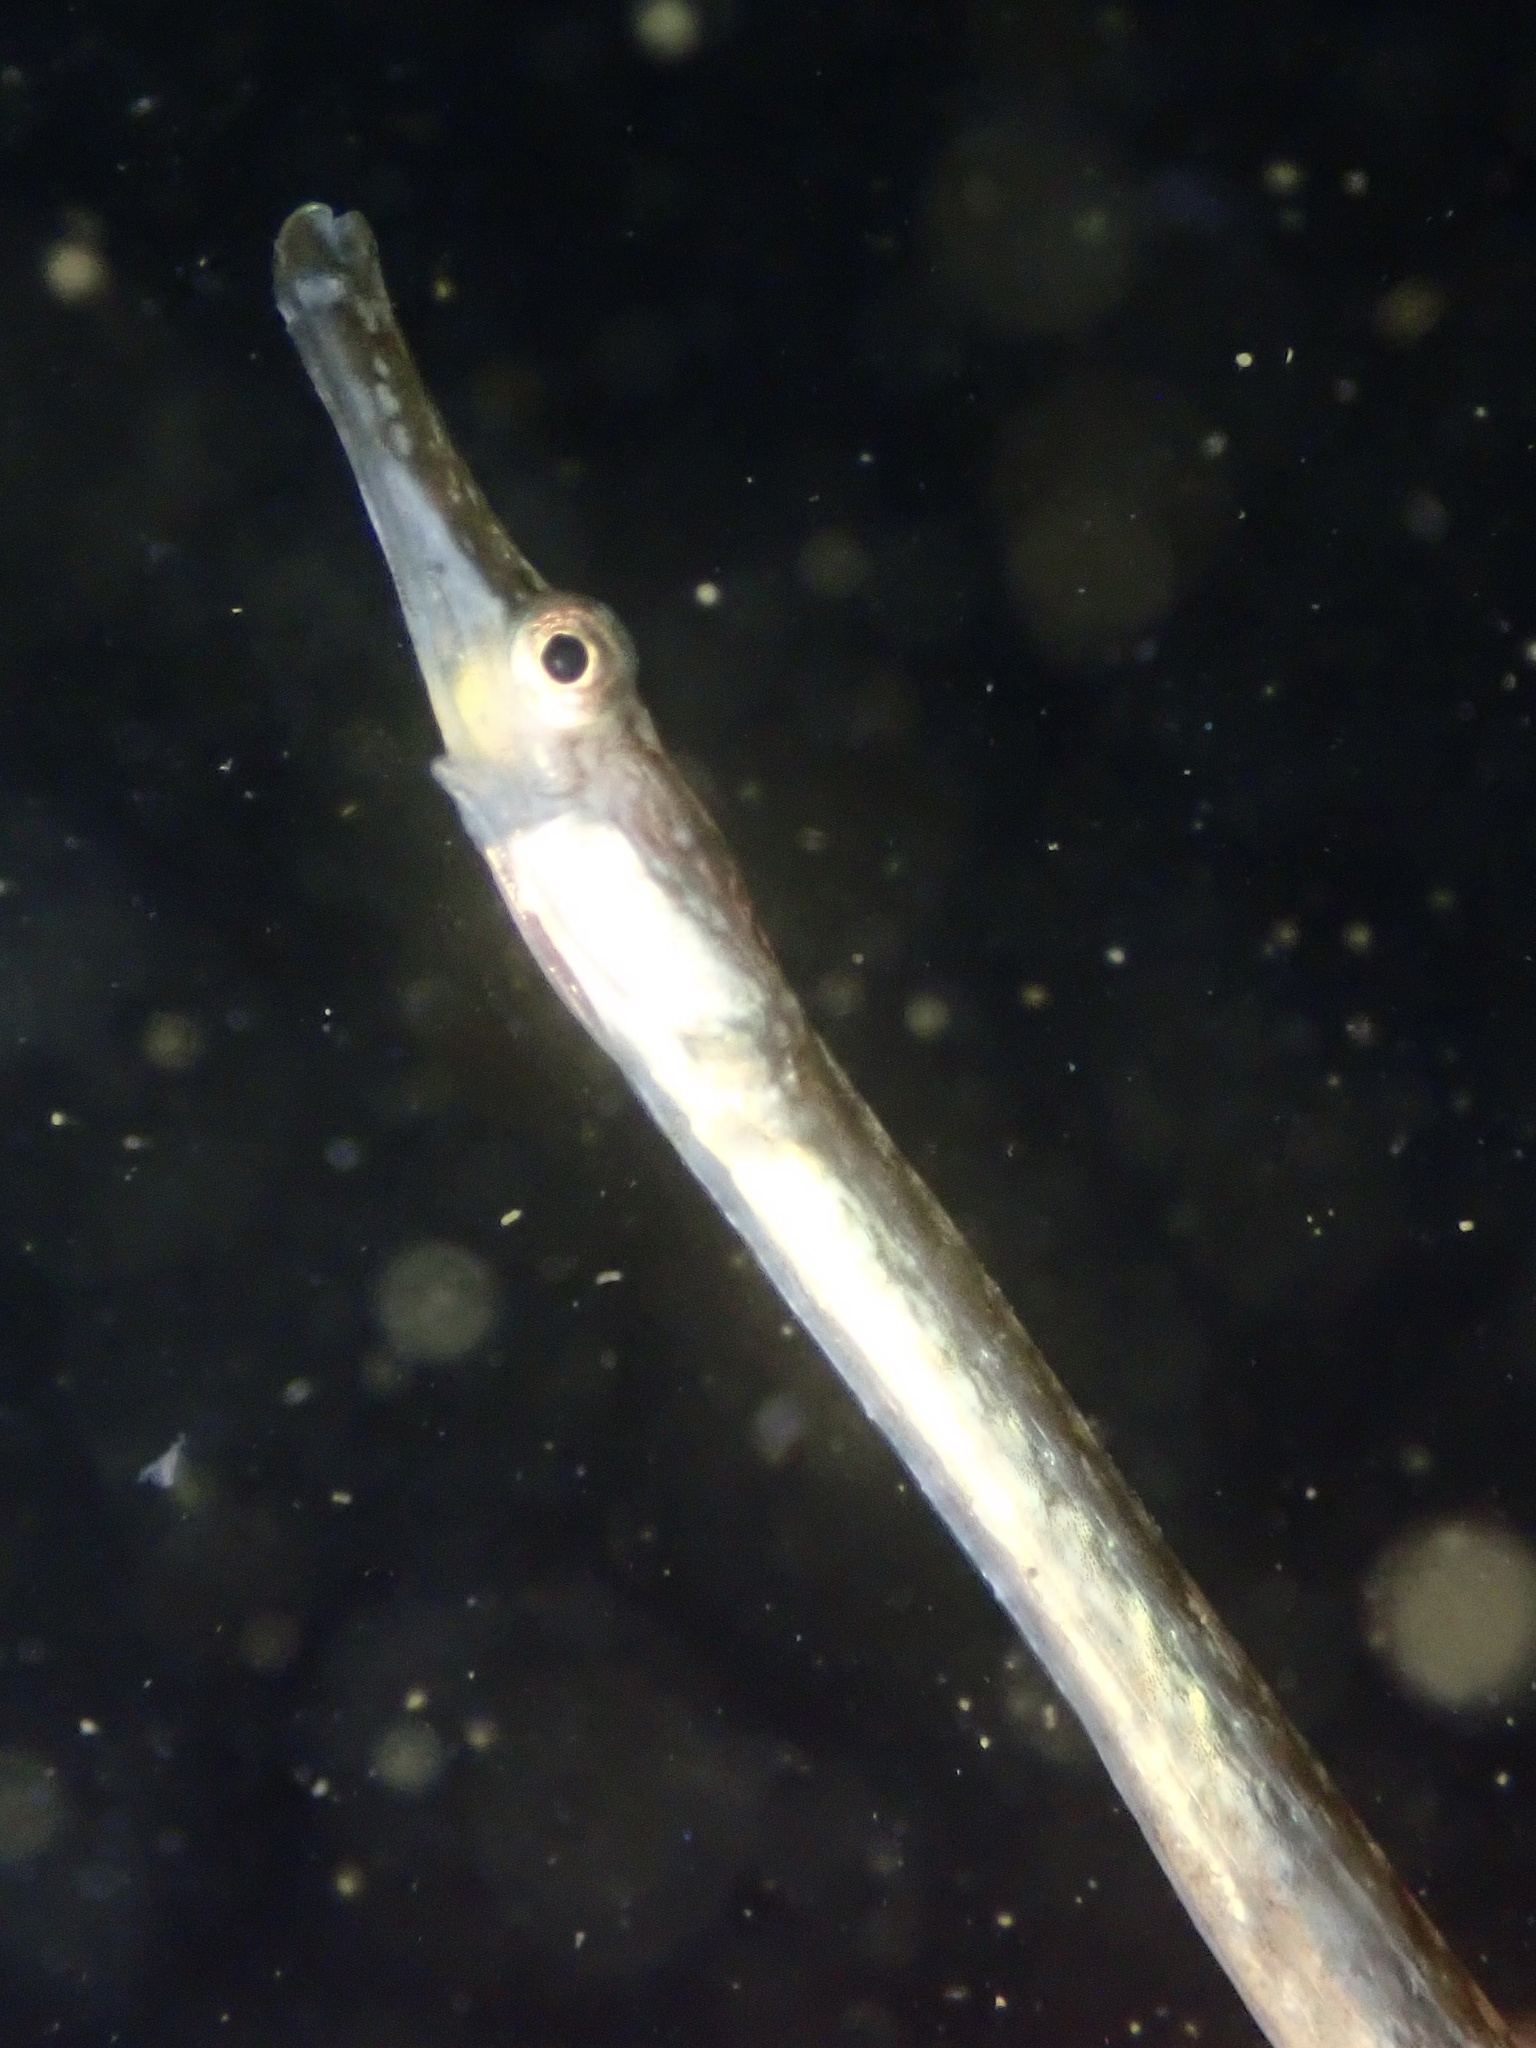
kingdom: Animalia
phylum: Chordata
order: Syngnathiformes
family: Syngnathidae
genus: Syngnathus
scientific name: Syngnathus californiensis
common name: Great pipefish
